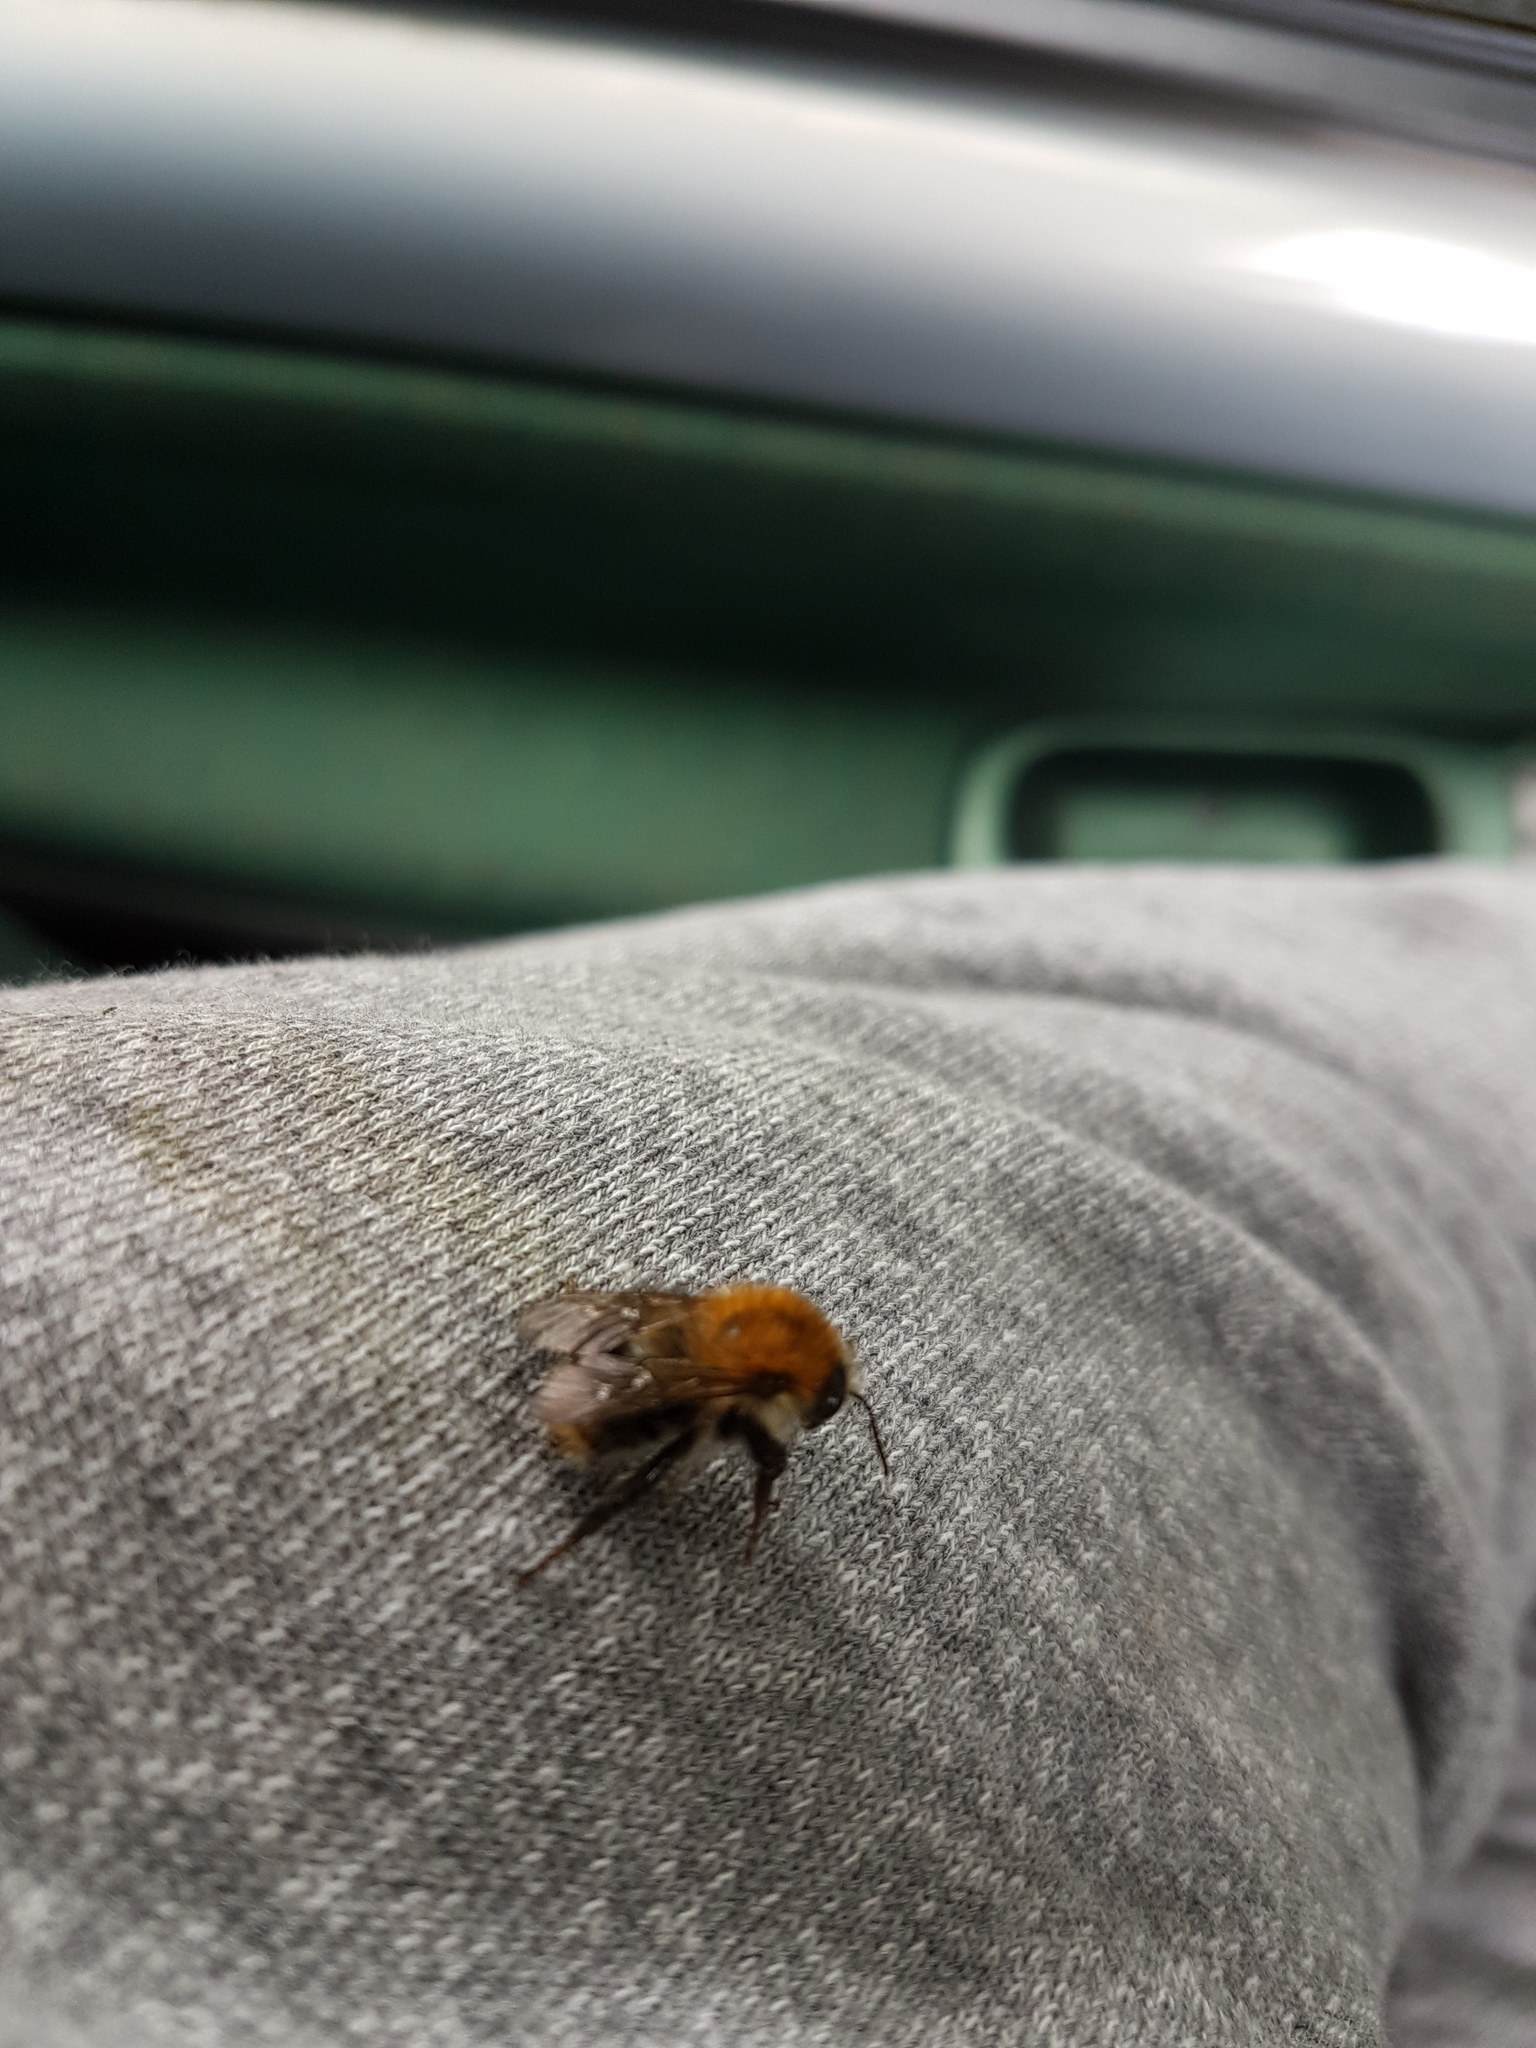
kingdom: Animalia
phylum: Arthropoda
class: Insecta
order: Hymenoptera
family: Apidae
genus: Bombus
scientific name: Bombus pascuorum
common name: Common carder bee
